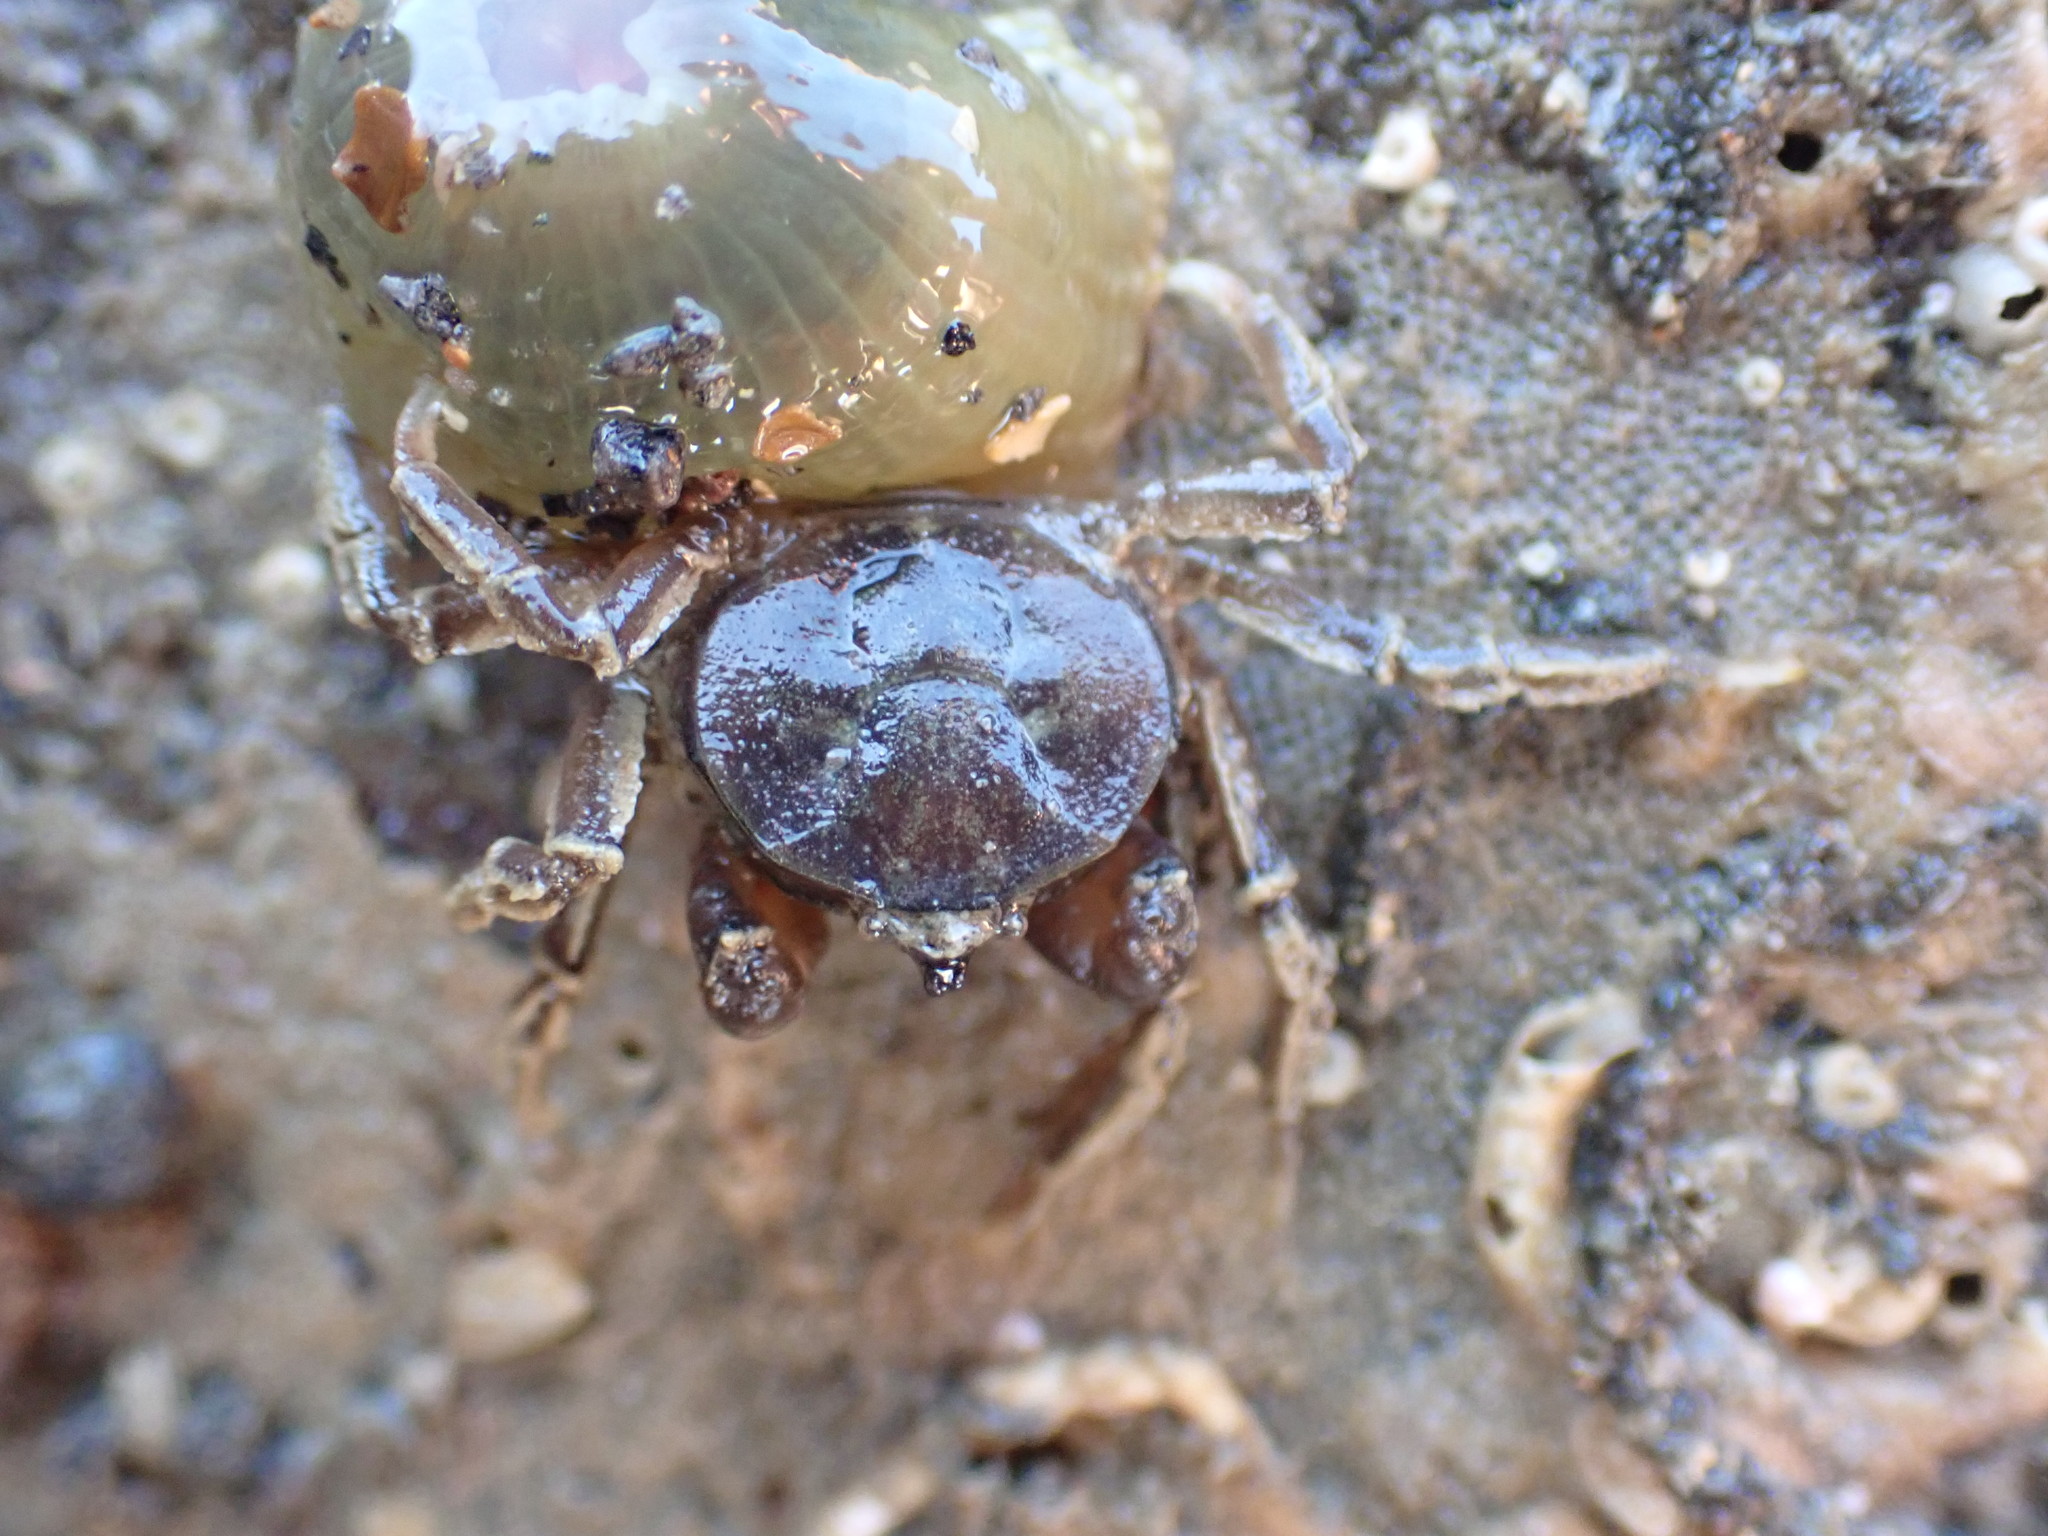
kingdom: Animalia
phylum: Arthropoda
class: Malacostraca
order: Decapoda
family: Hymenosomatidae
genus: Halicarcinus
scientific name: Halicarcinus quoyi
